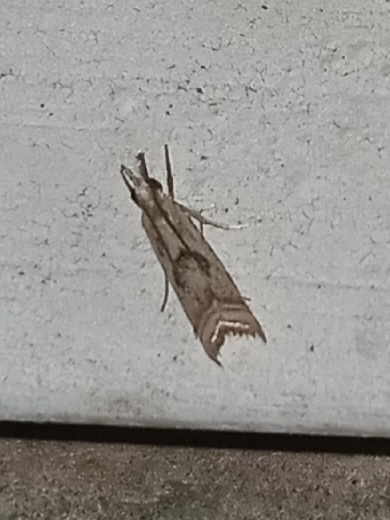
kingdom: Animalia
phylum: Arthropoda
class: Insecta
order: Lepidoptera
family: Crambidae
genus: Microcrambus
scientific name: Microcrambus elegans
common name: Elegant grass-veneer
